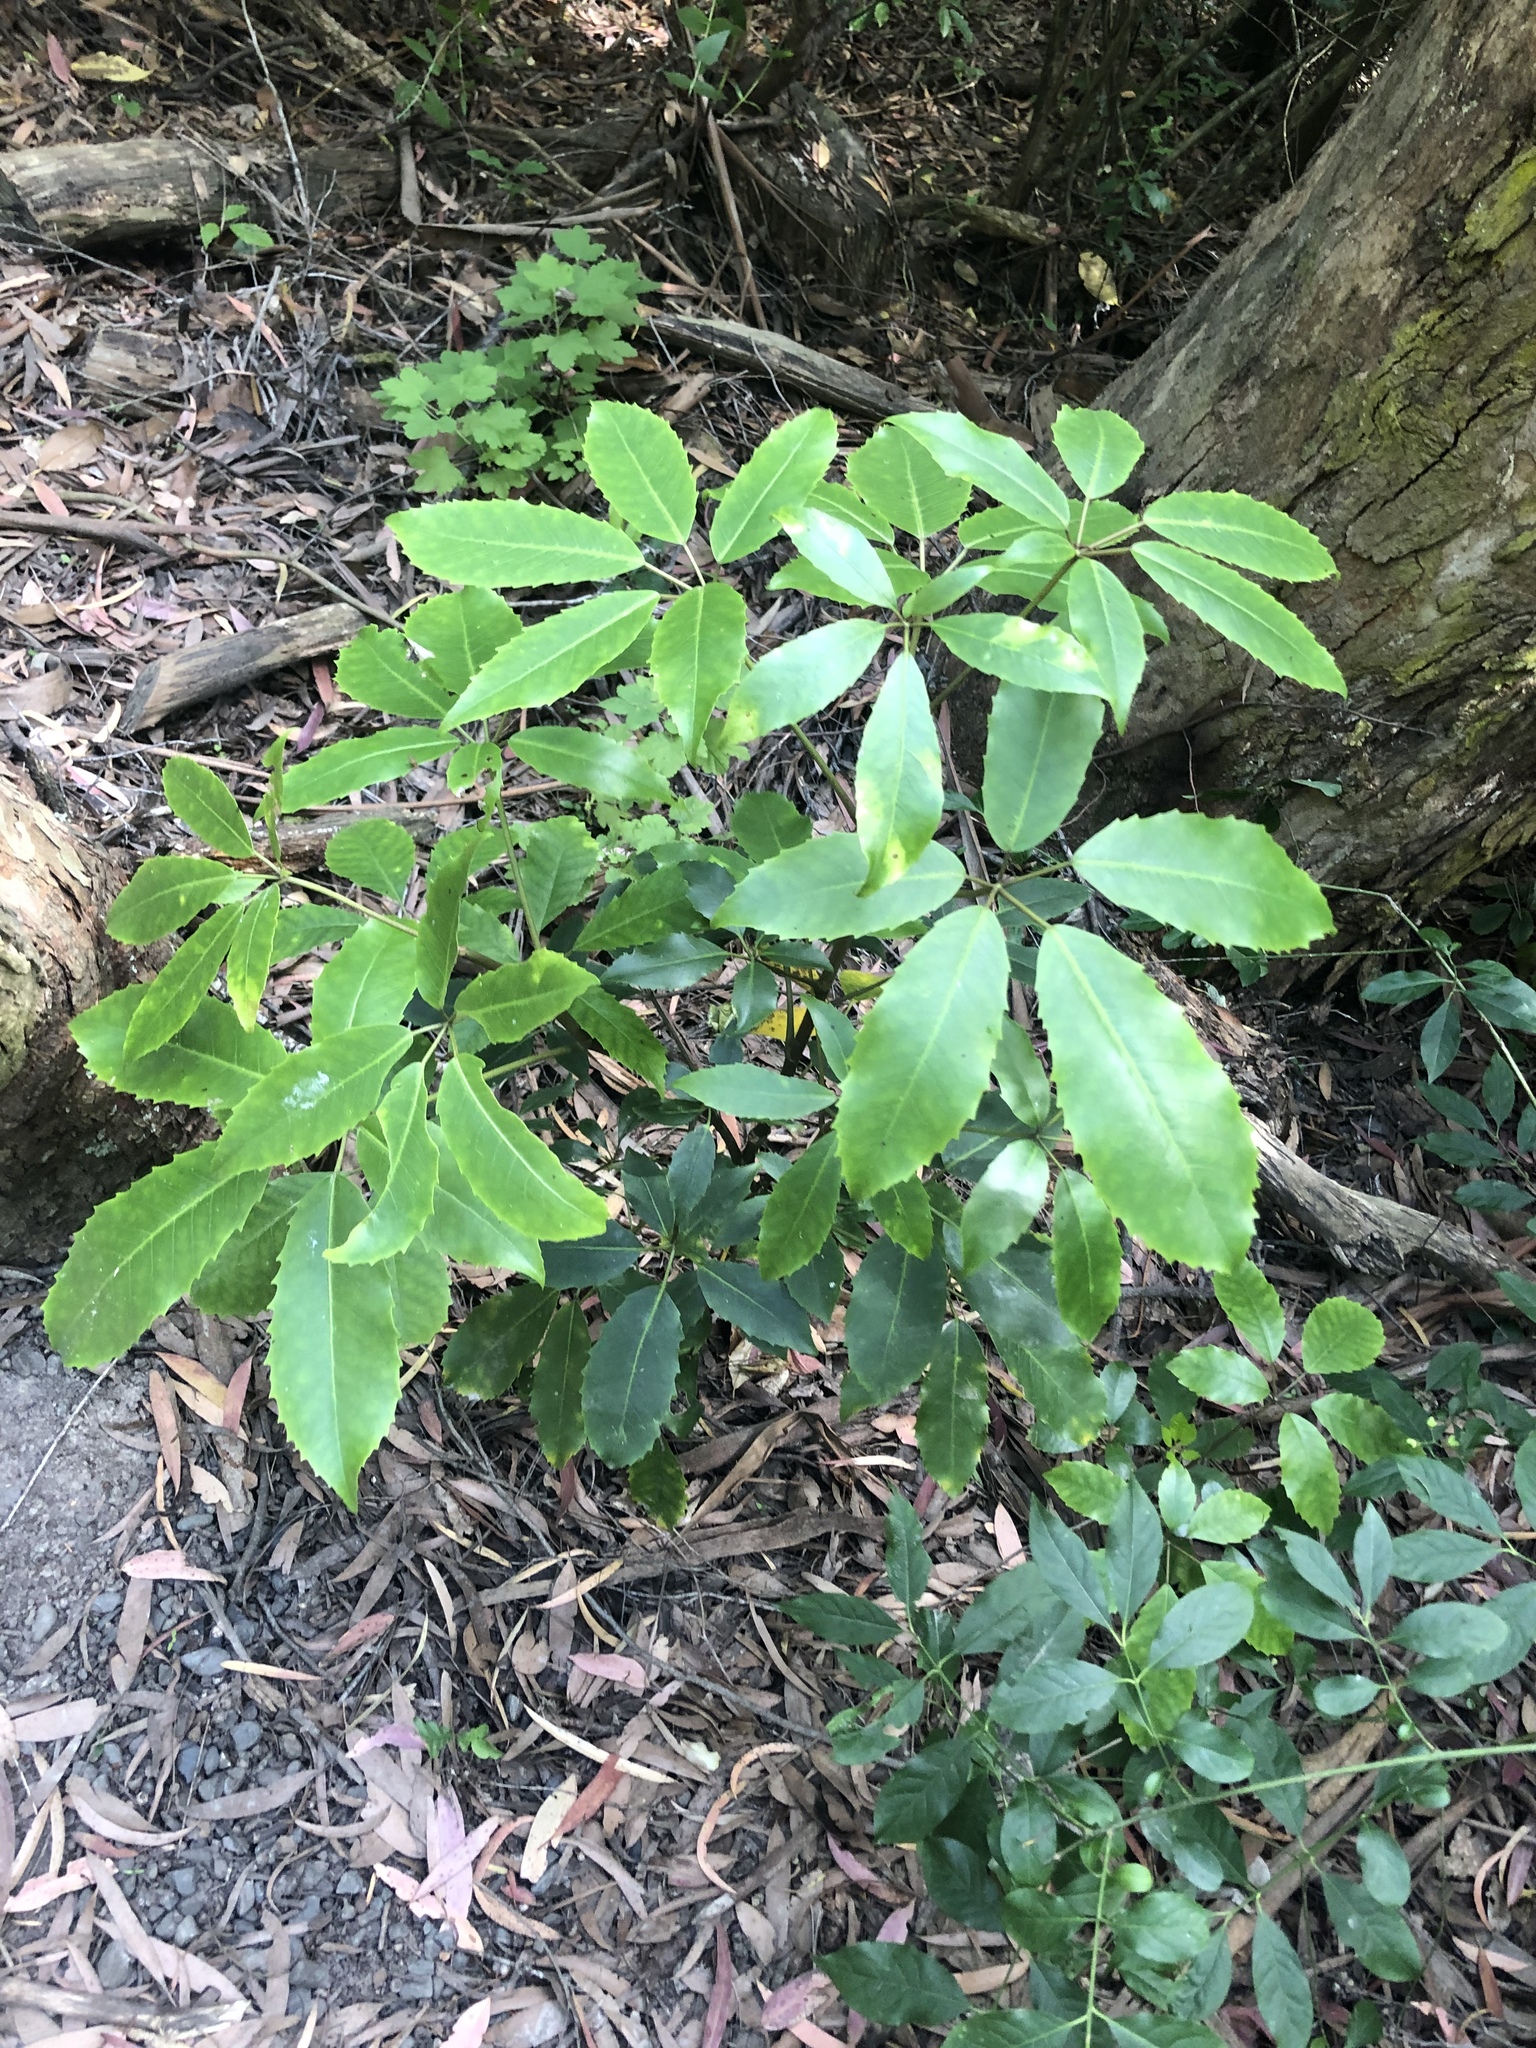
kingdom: Plantae
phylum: Tracheophyta
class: Magnoliopsida
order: Apiales
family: Araliaceae
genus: Neopanax
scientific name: Neopanax arboreus
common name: Five-fingers
